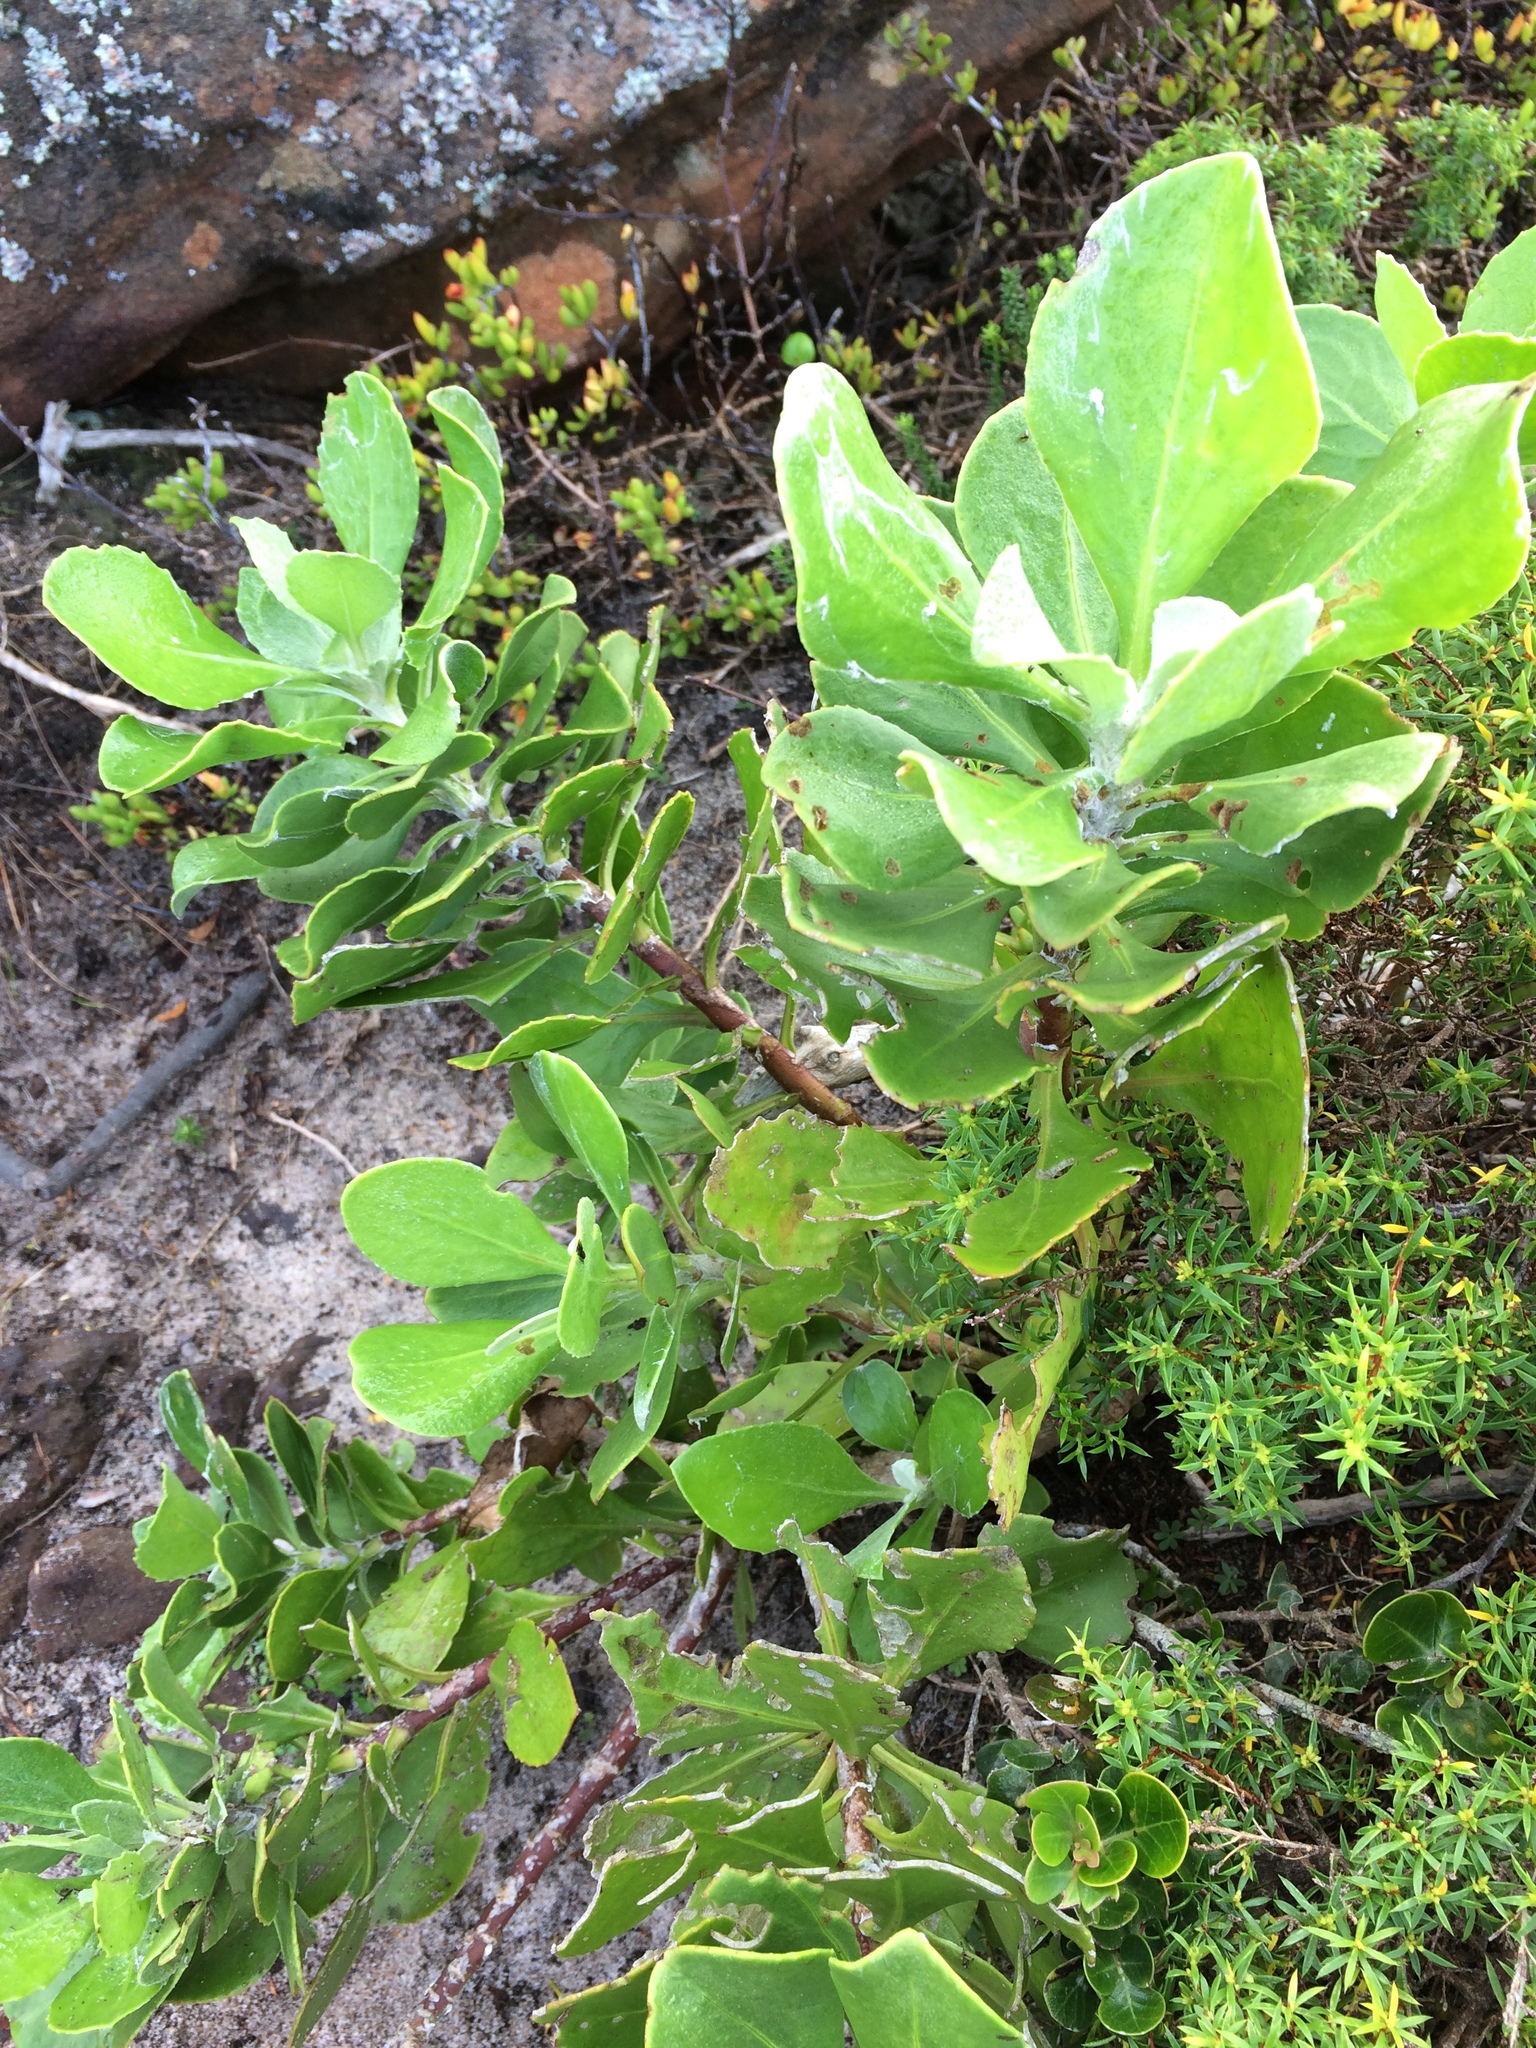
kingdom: Plantae
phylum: Tracheophyta
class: Magnoliopsida
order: Asterales
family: Asteraceae
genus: Osteospermum
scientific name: Osteospermum moniliferum
